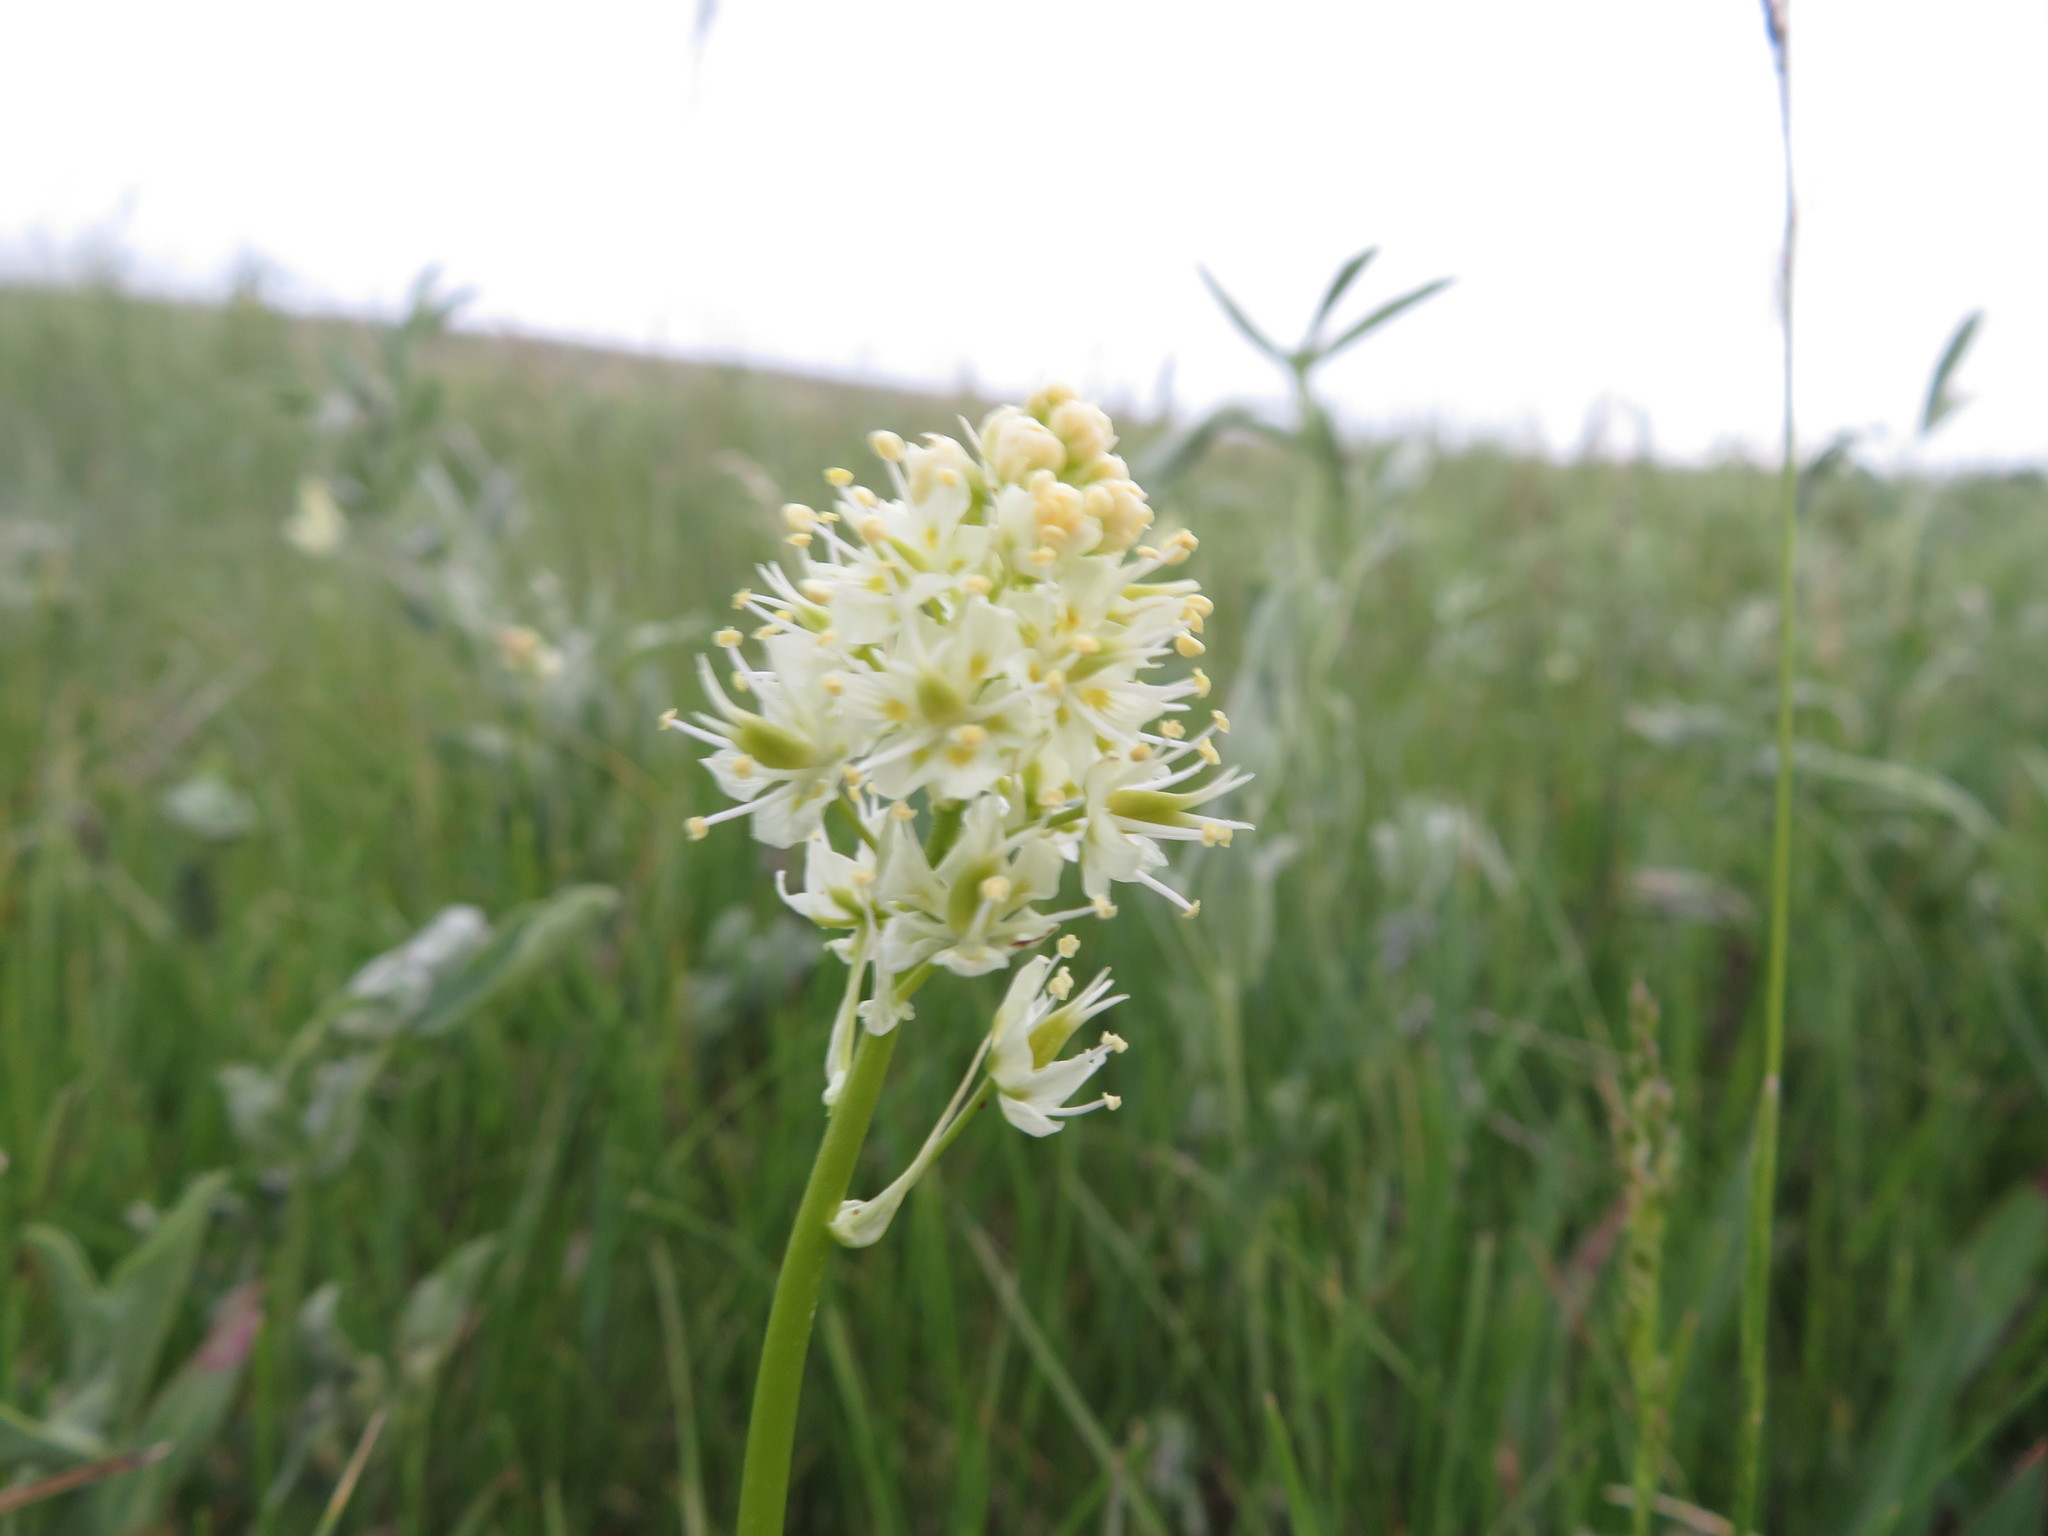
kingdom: Plantae
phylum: Tracheophyta
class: Liliopsida
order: Liliales
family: Melanthiaceae
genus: Toxicoscordion
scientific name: Toxicoscordion venenosum
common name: Meadow death camas
